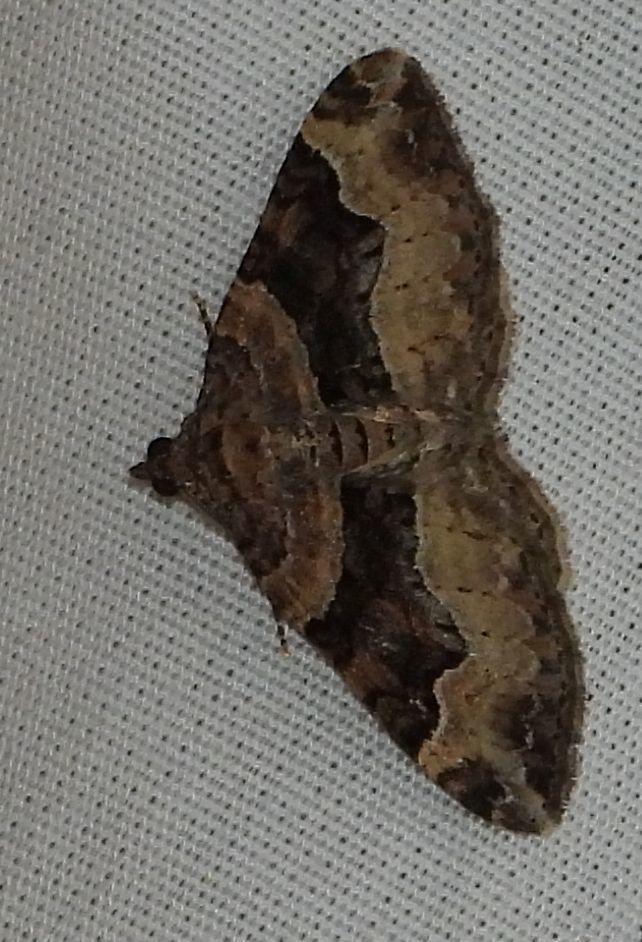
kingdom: Animalia
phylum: Arthropoda
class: Insecta
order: Lepidoptera
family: Geometridae
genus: Xanthorhoe
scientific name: Xanthorhoe lacustrata
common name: Toothed brown carpet
